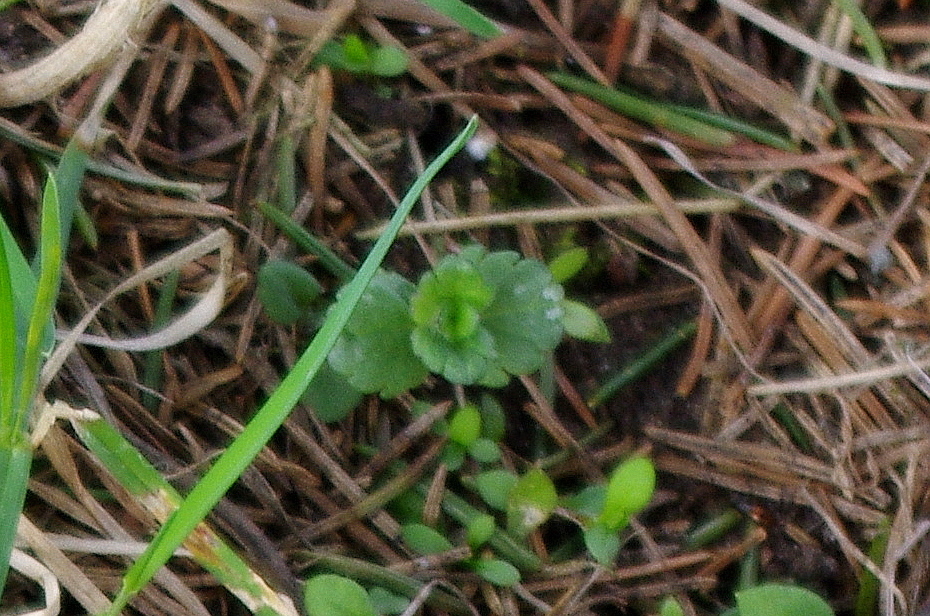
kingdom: Plantae
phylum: Tracheophyta
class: Magnoliopsida
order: Lamiales
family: Plantaginaceae
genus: Veronica
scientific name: Veronica chamaedrys
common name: Germander speedwell
